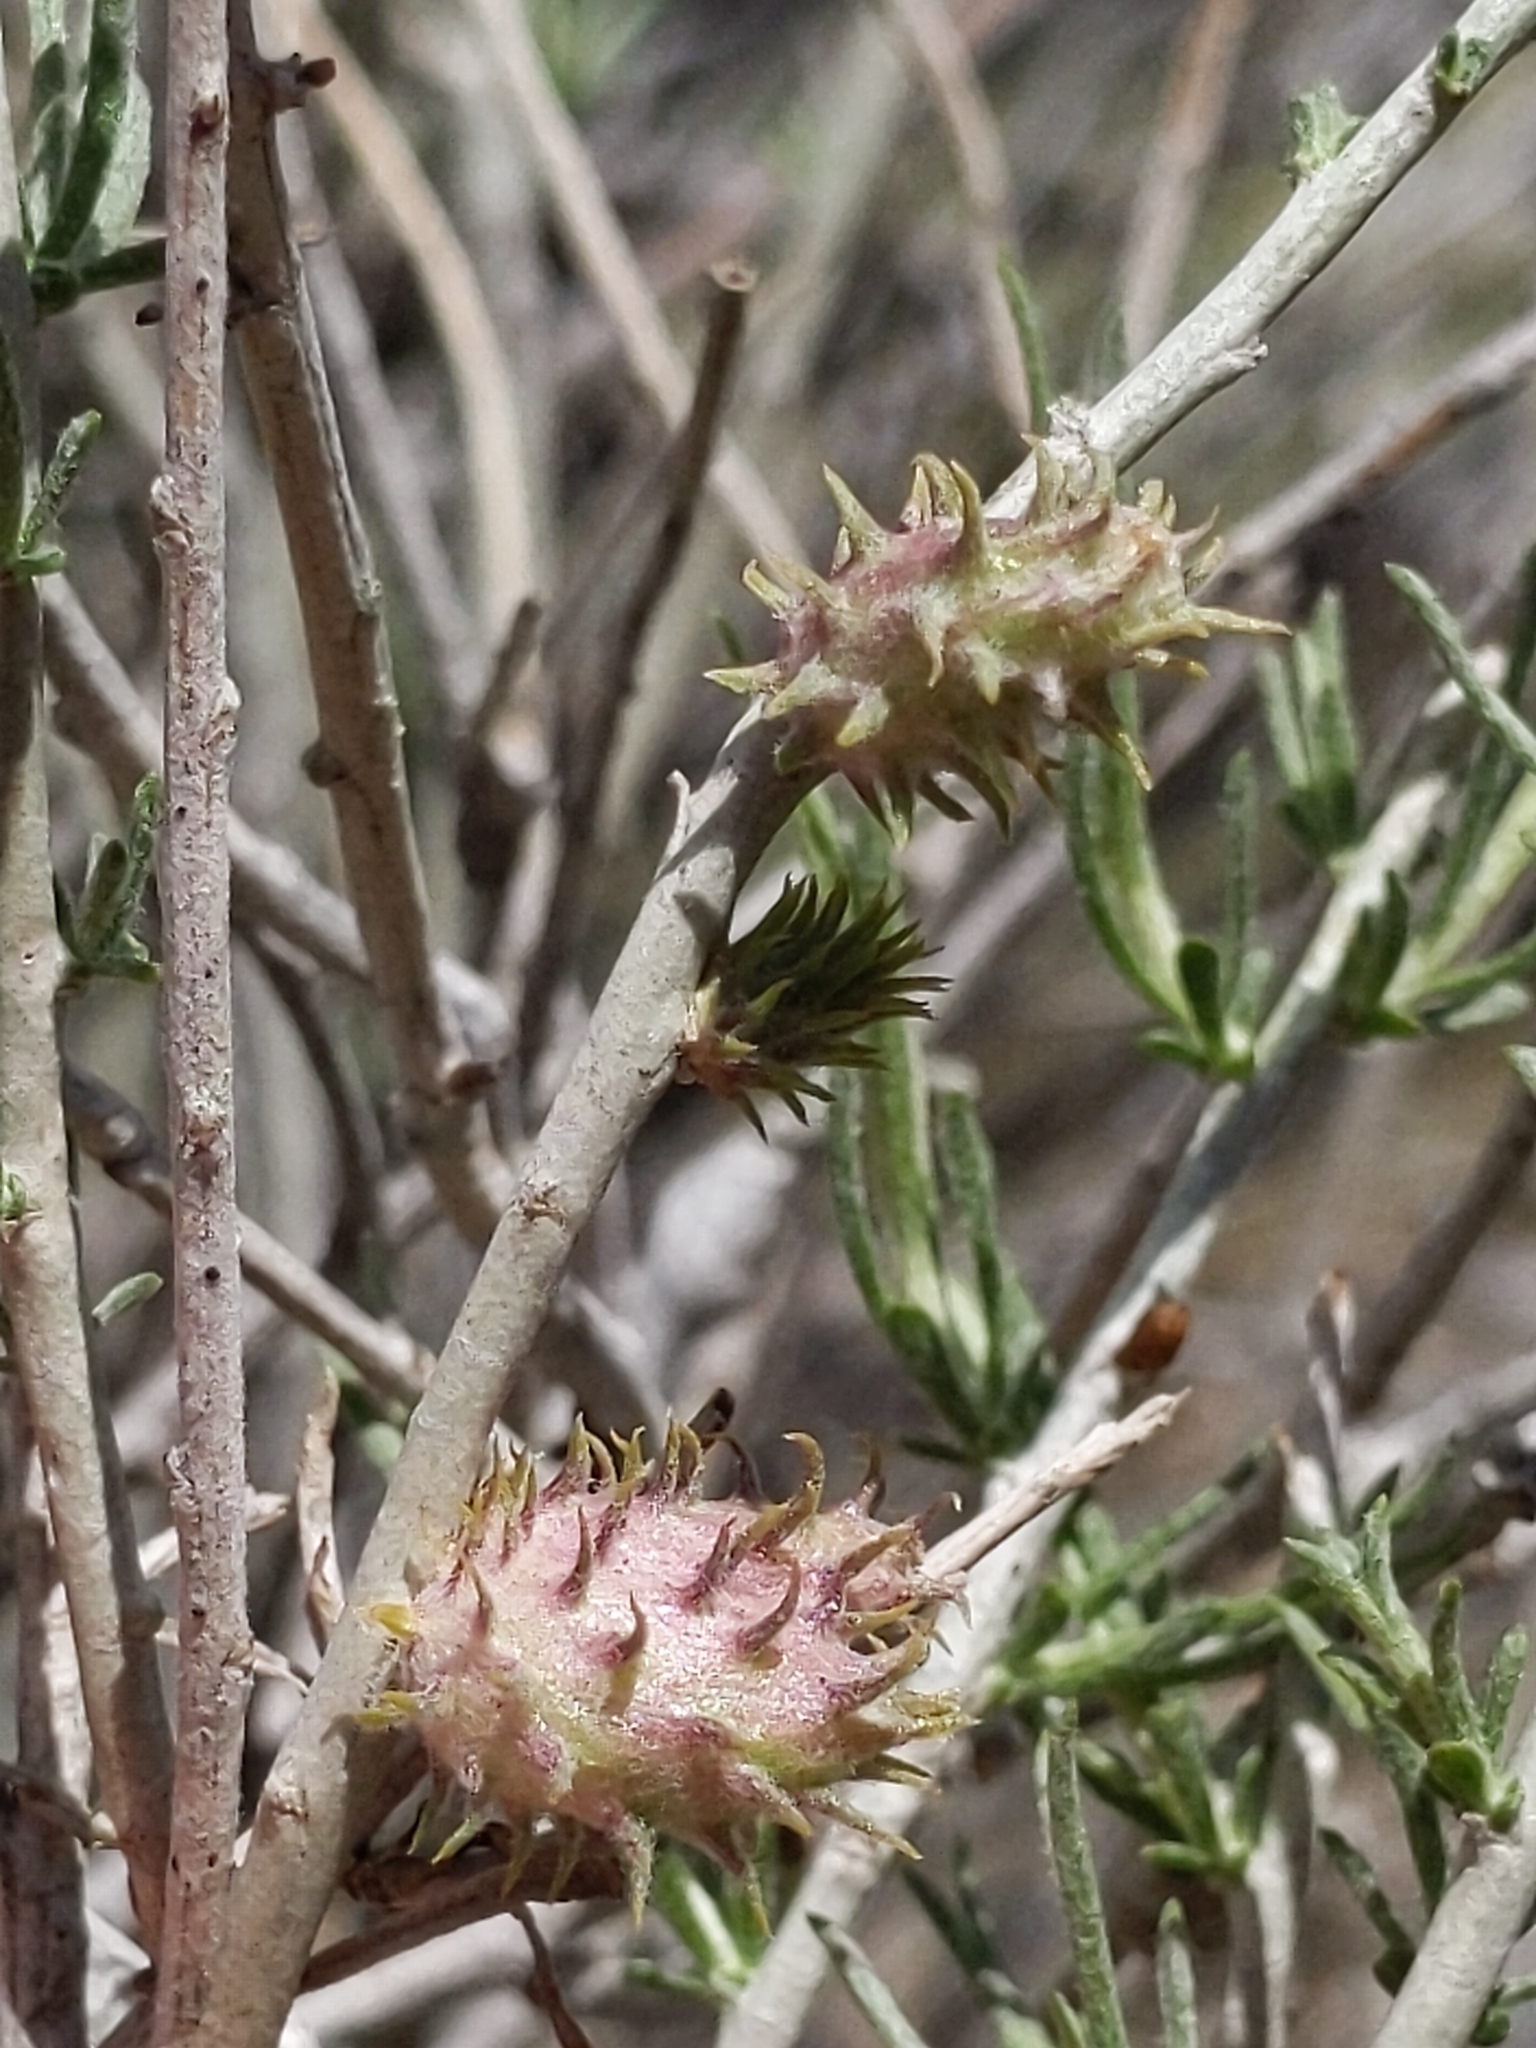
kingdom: Animalia
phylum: Arthropoda
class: Insecta
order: Diptera
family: Cecidomyiidae
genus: Rhopalomyia
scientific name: Rhopalomyia utahensis
